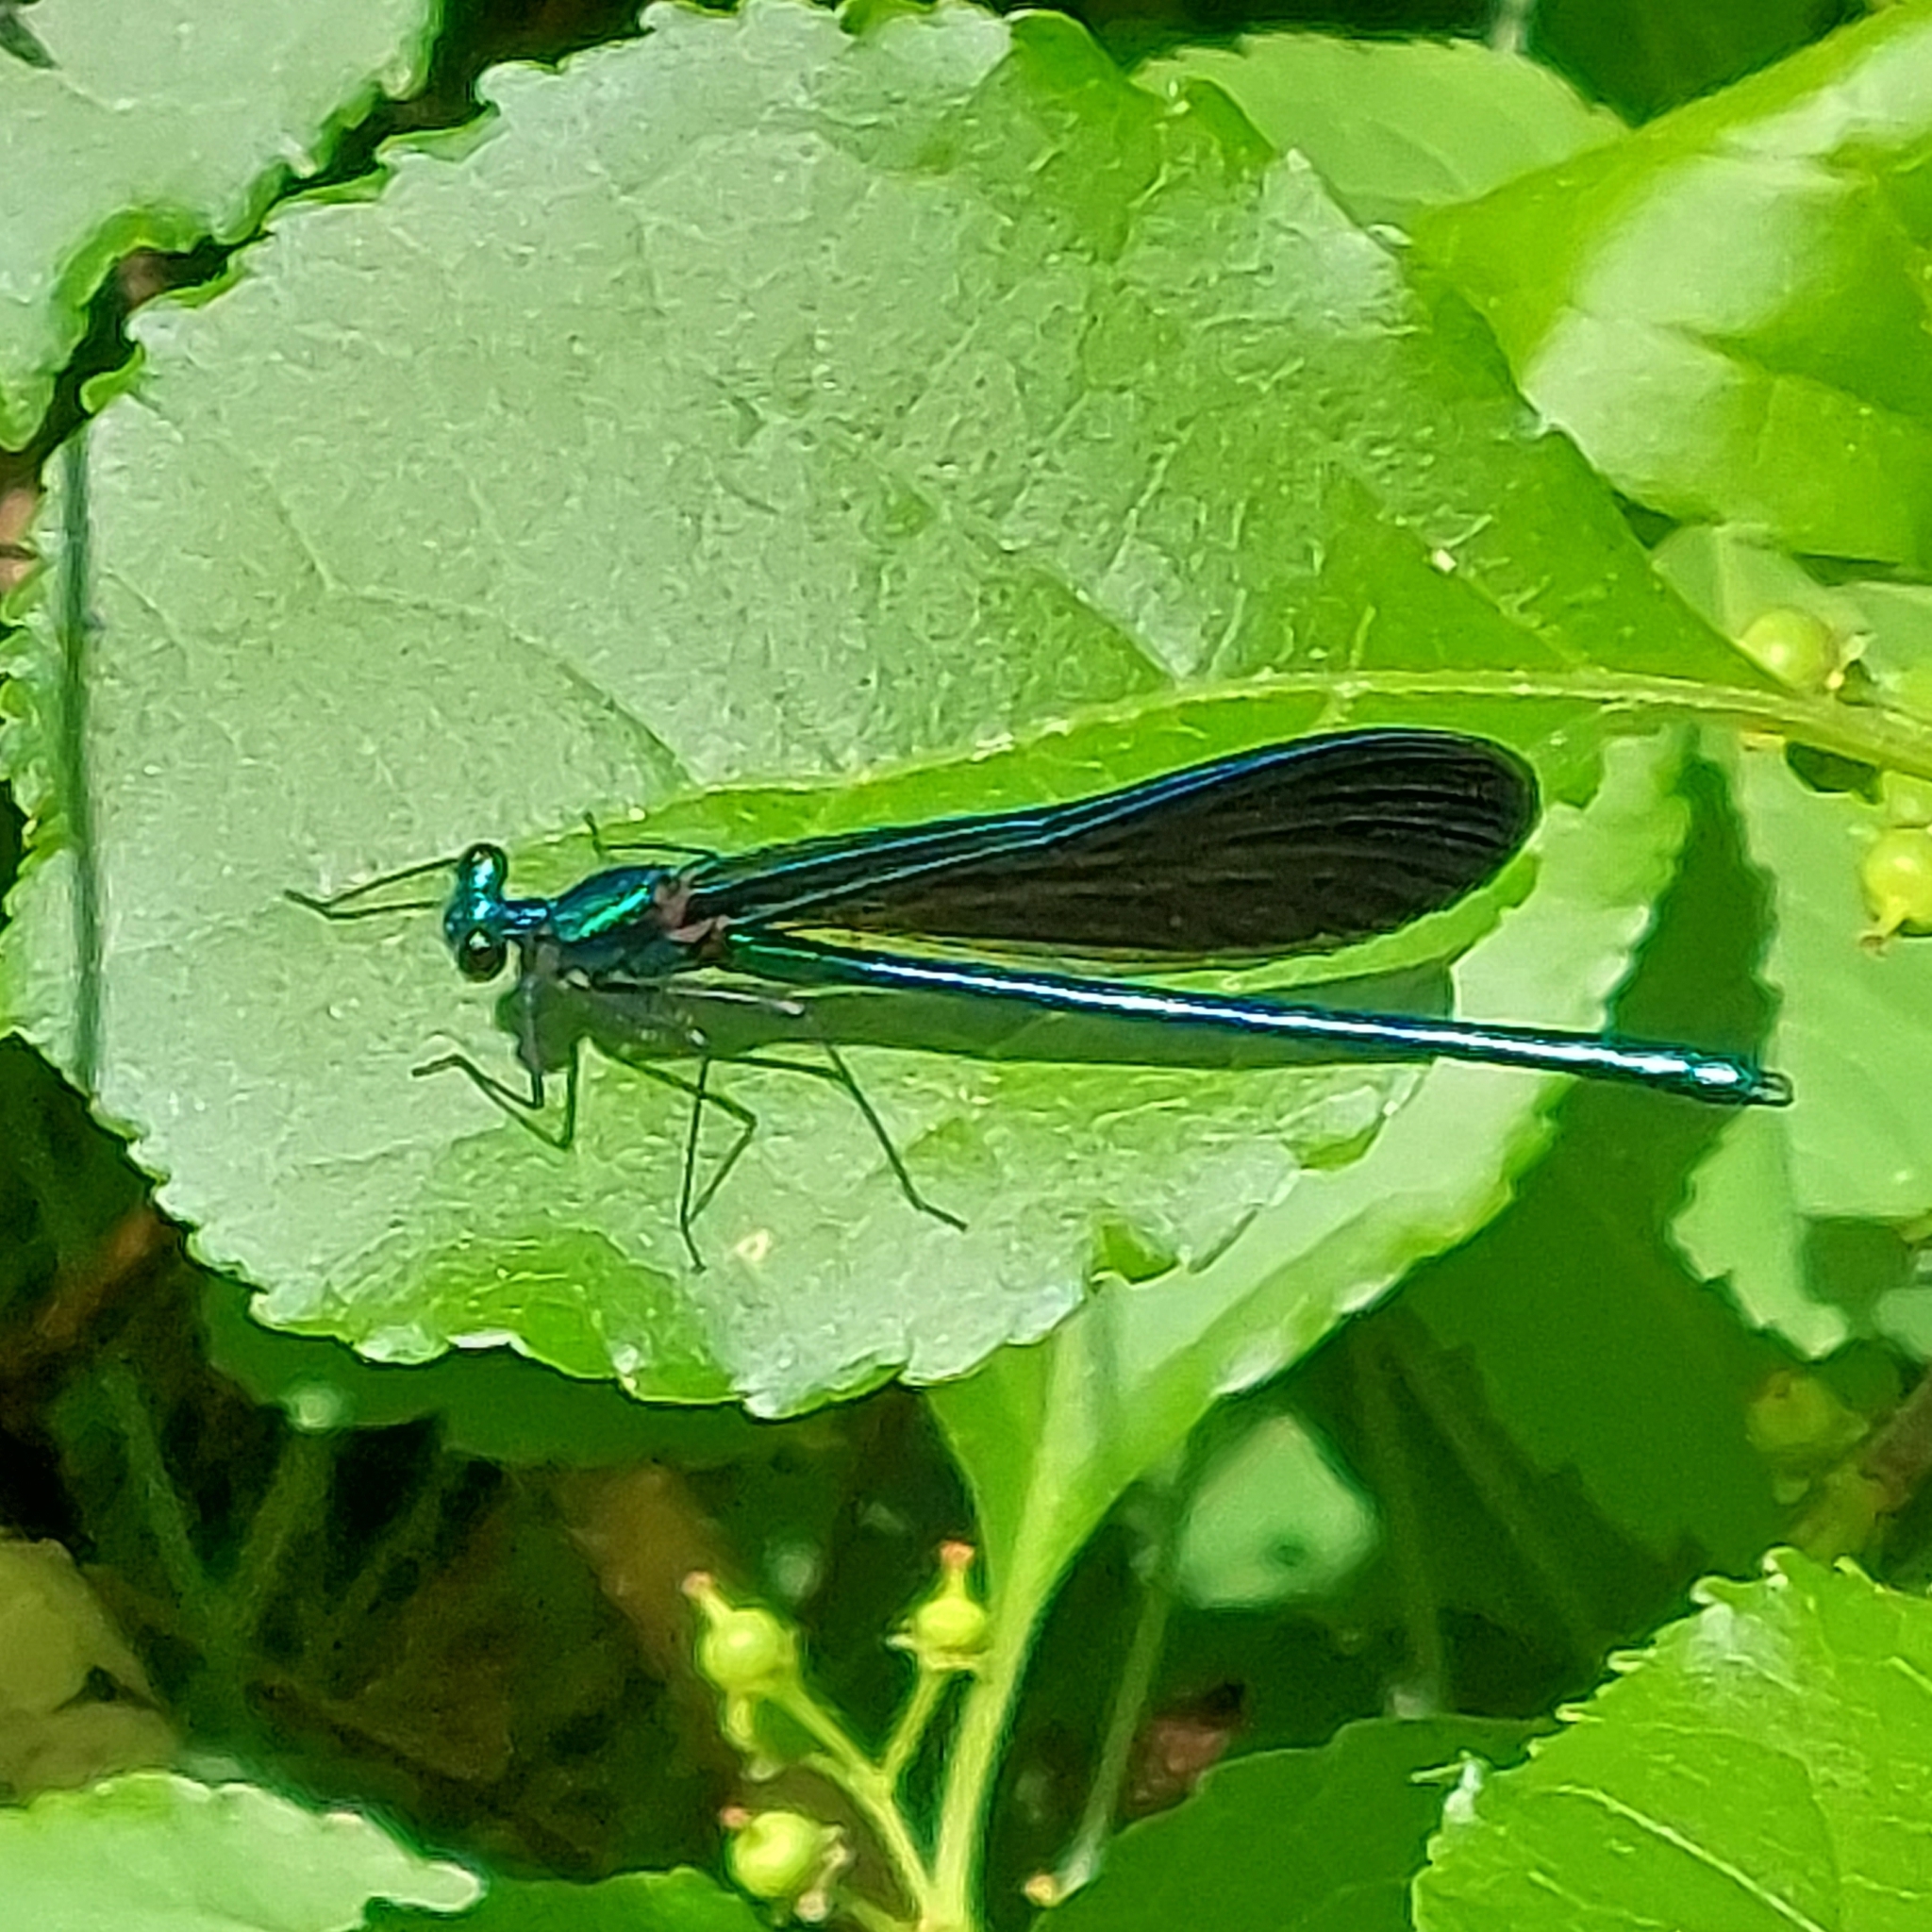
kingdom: Animalia
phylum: Arthropoda
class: Insecta
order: Odonata
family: Calopterygidae
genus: Calopteryx
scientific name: Calopteryx maculata
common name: Ebony jewelwing
